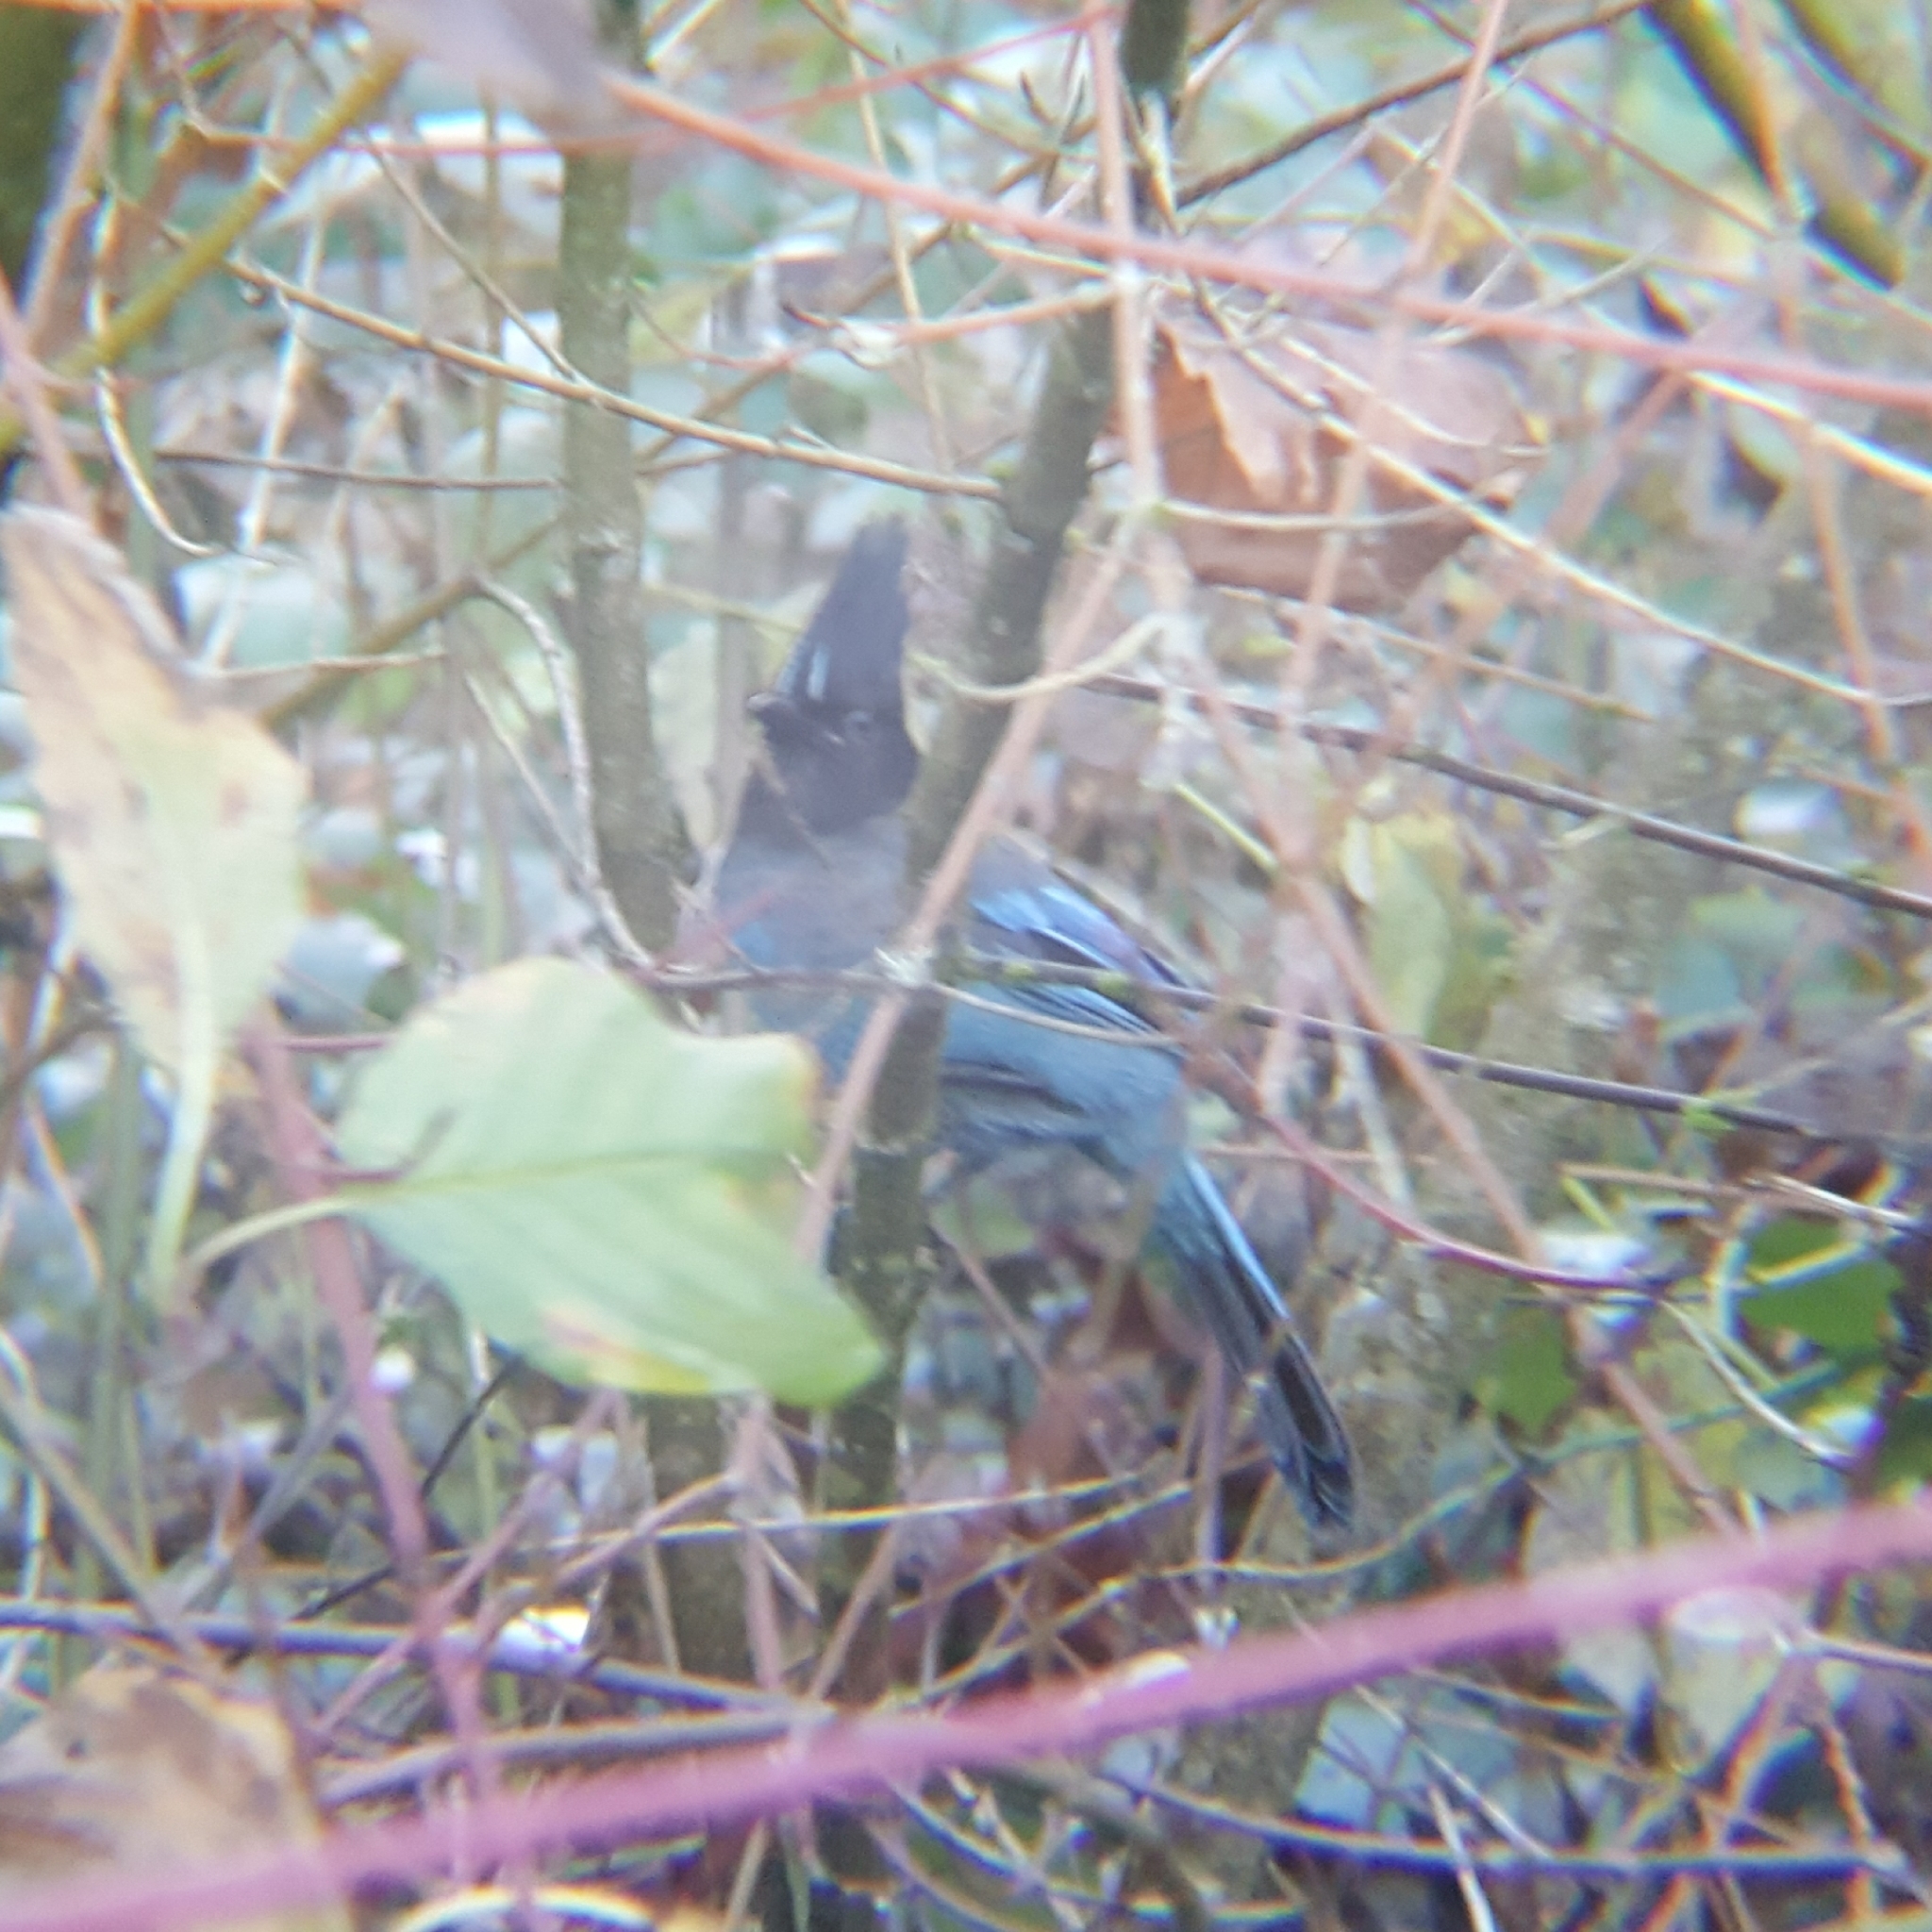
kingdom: Animalia
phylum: Chordata
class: Aves
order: Passeriformes
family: Corvidae
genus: Cyanocitta
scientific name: Cyanocitta stelleri
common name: Steller's jay
